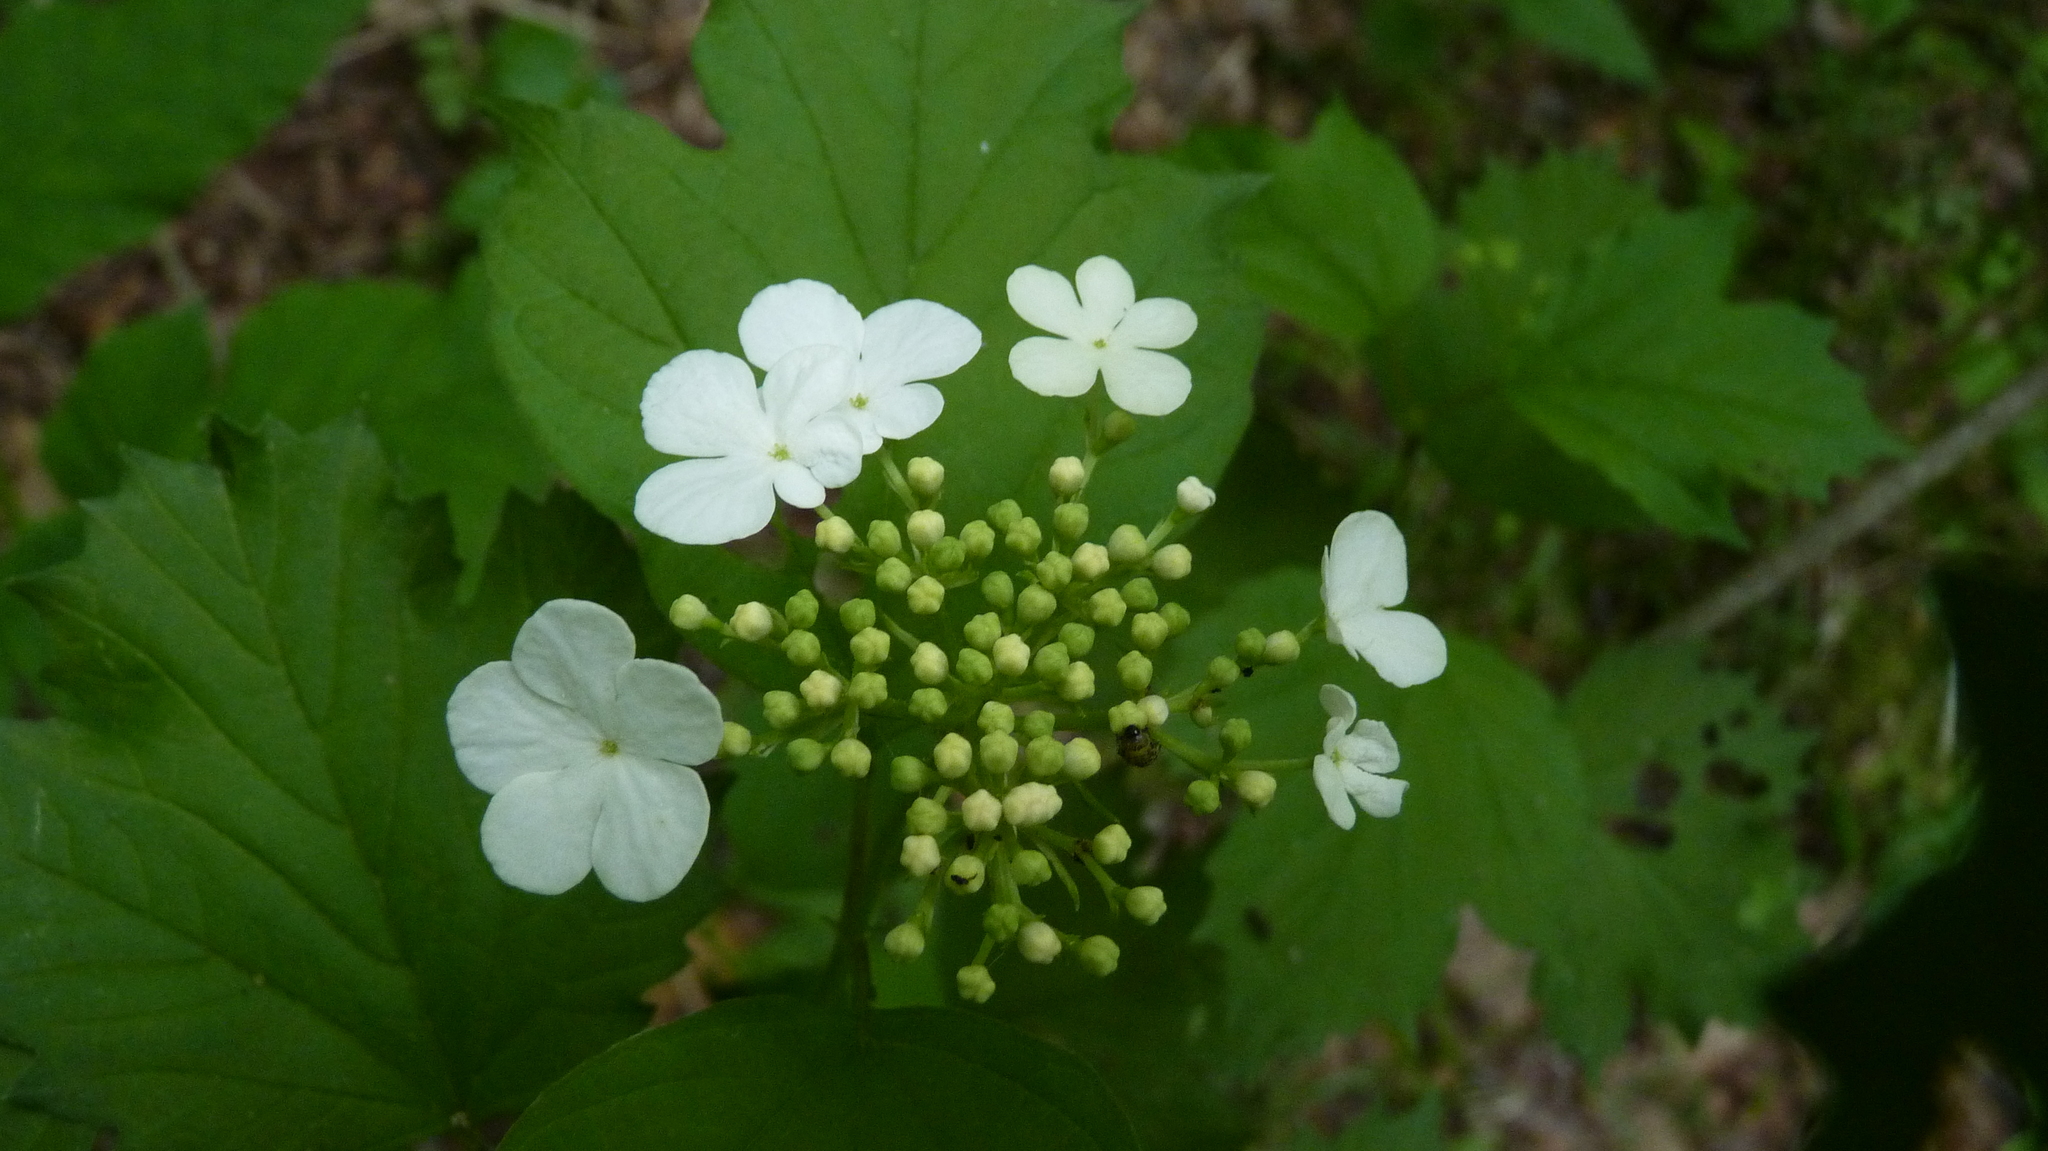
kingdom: Plantae
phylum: Tracheophyta
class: Magnoliopsida
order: Dipsacales
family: Viburnaceae
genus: Viburnum
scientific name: Viburnum opulus
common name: Guelder-rose
